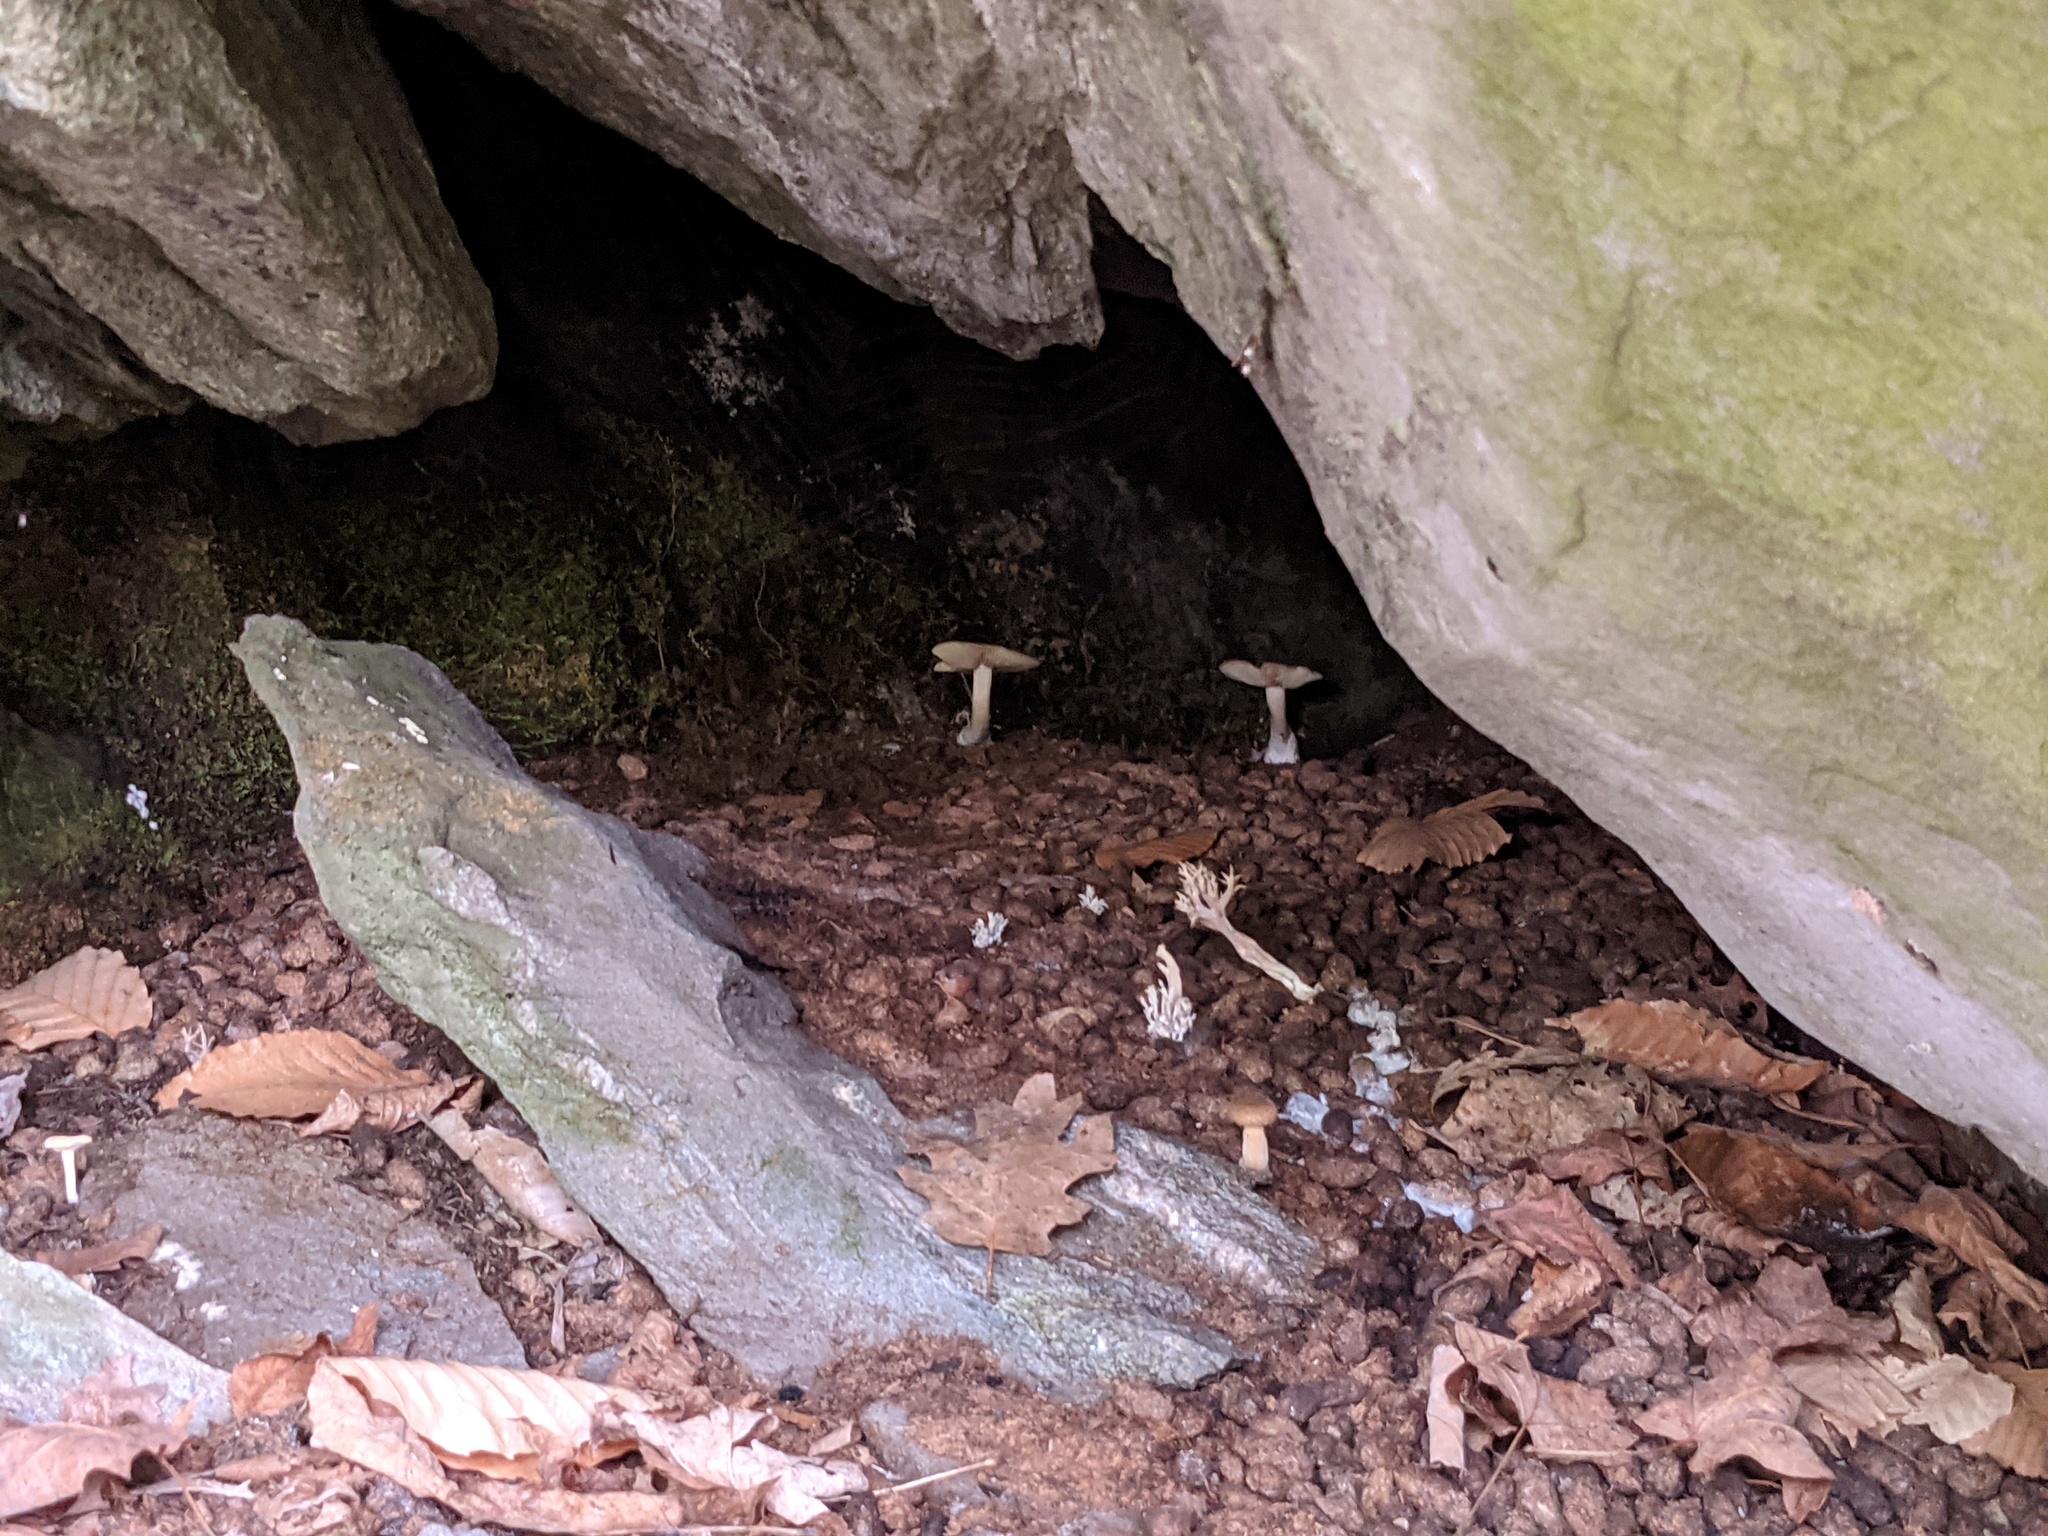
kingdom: Animalia
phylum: Chordata
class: Mammalia
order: Rodentia
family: Erethizontidae
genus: Erethizon
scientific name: Erethizon dorsatus
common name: North american porcupine
